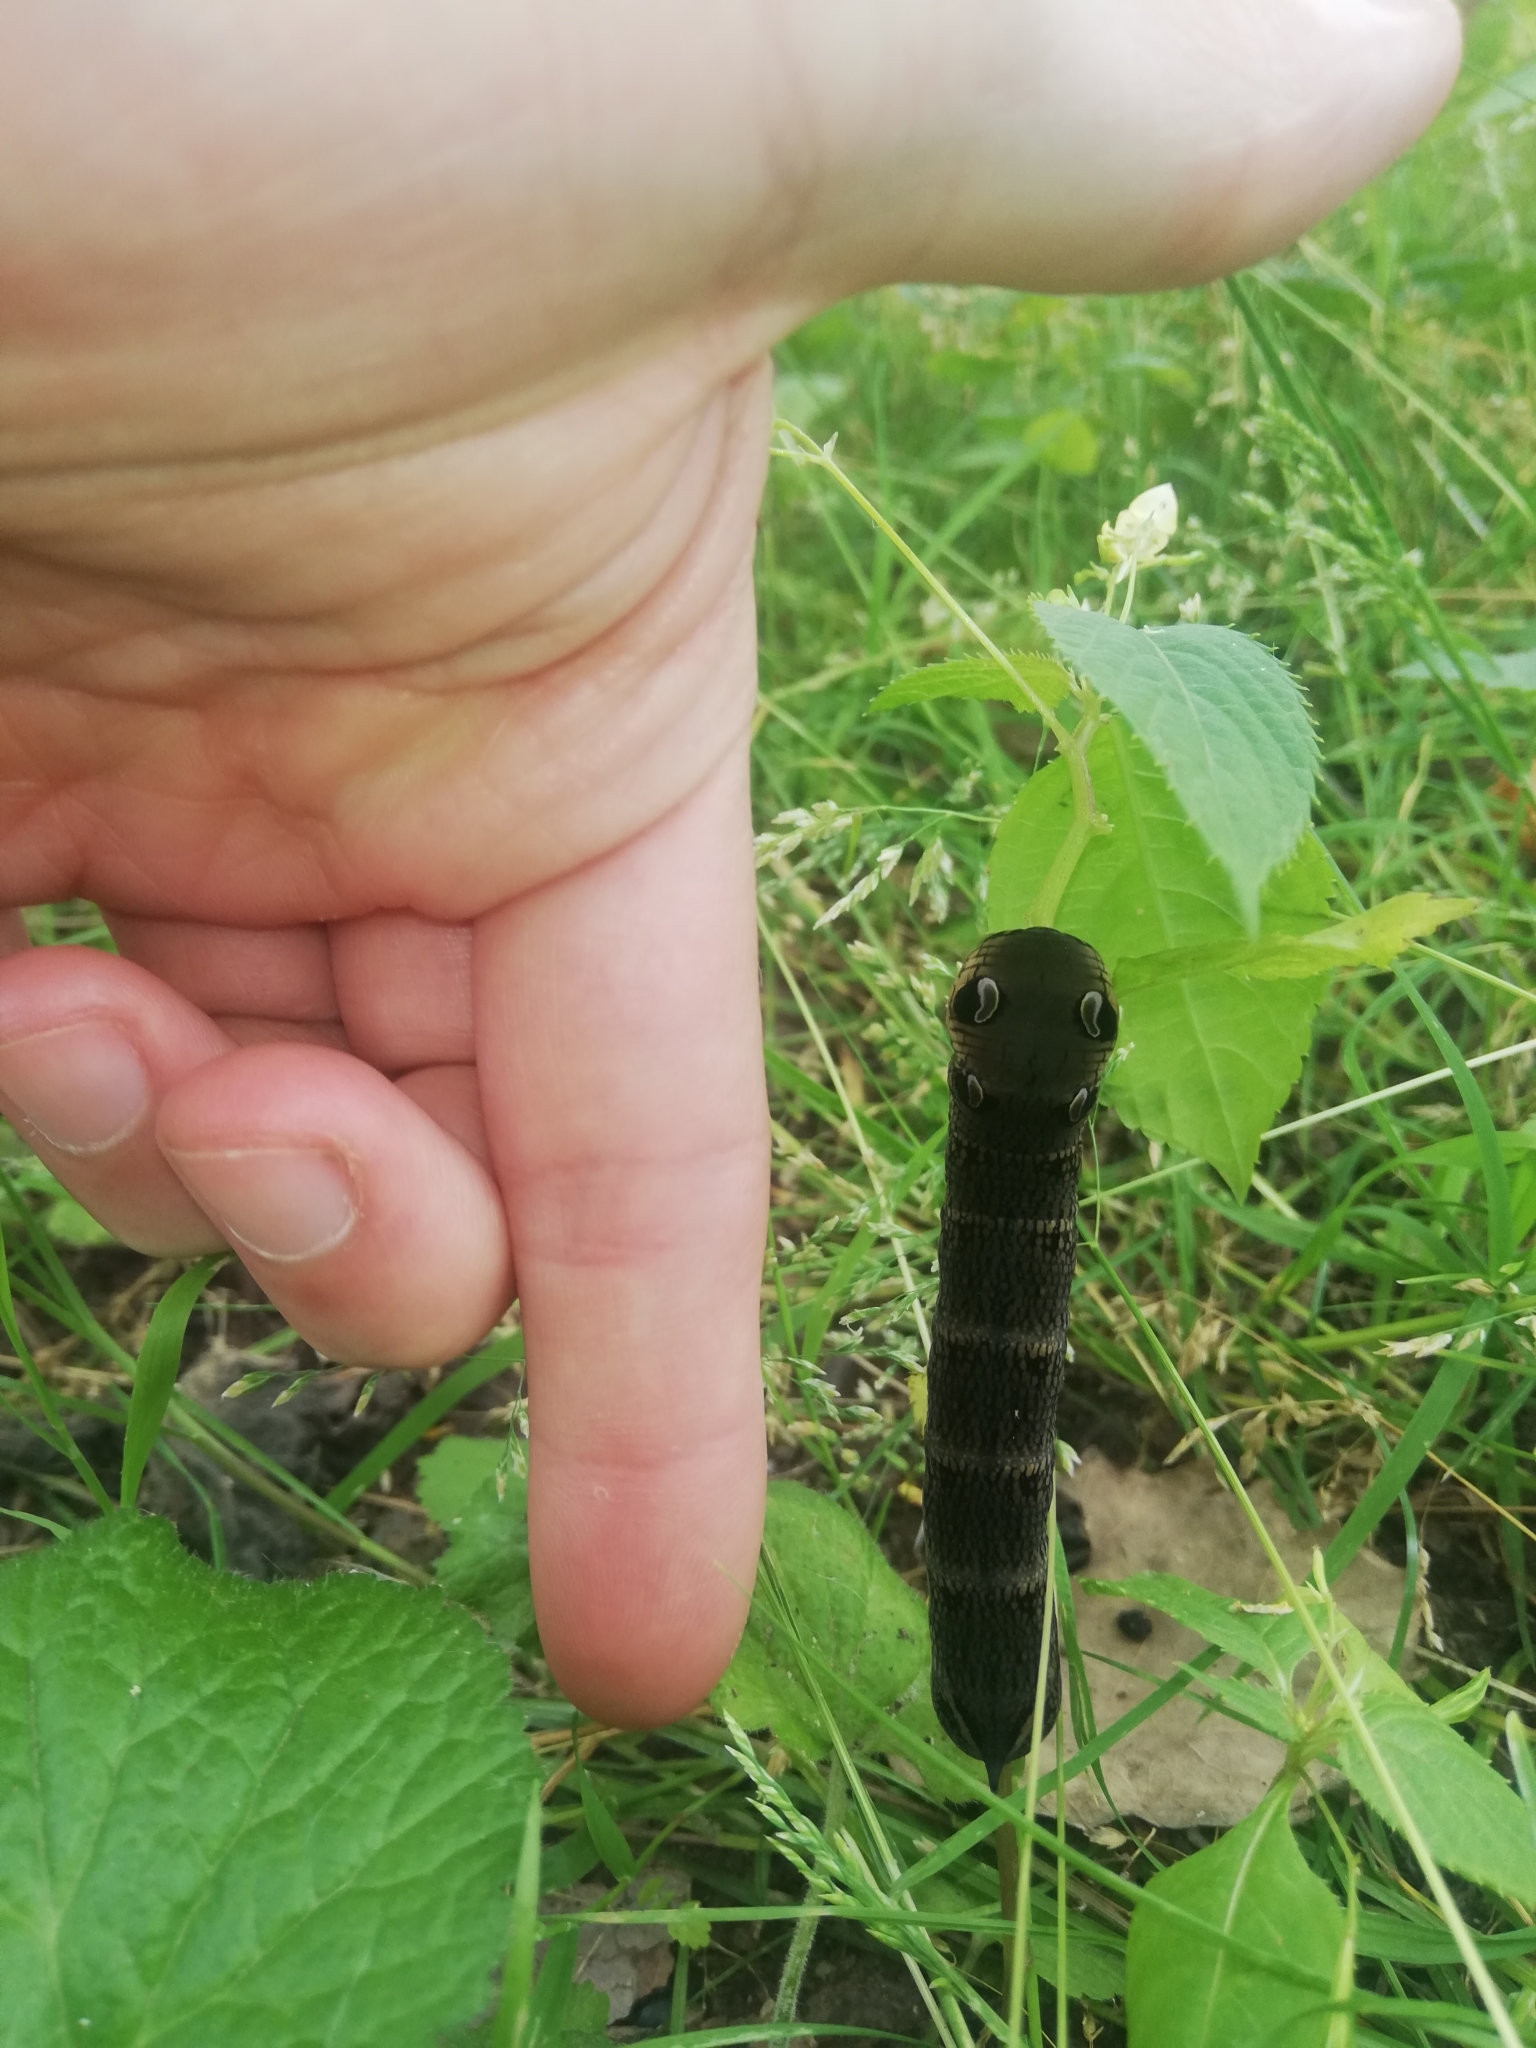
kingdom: Animalia
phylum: Arthropoda
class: Insecta
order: Lepidoptera
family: Sphingidae
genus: Deilephila
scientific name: Deilephila elpenor
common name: Elephant hawk-moth
